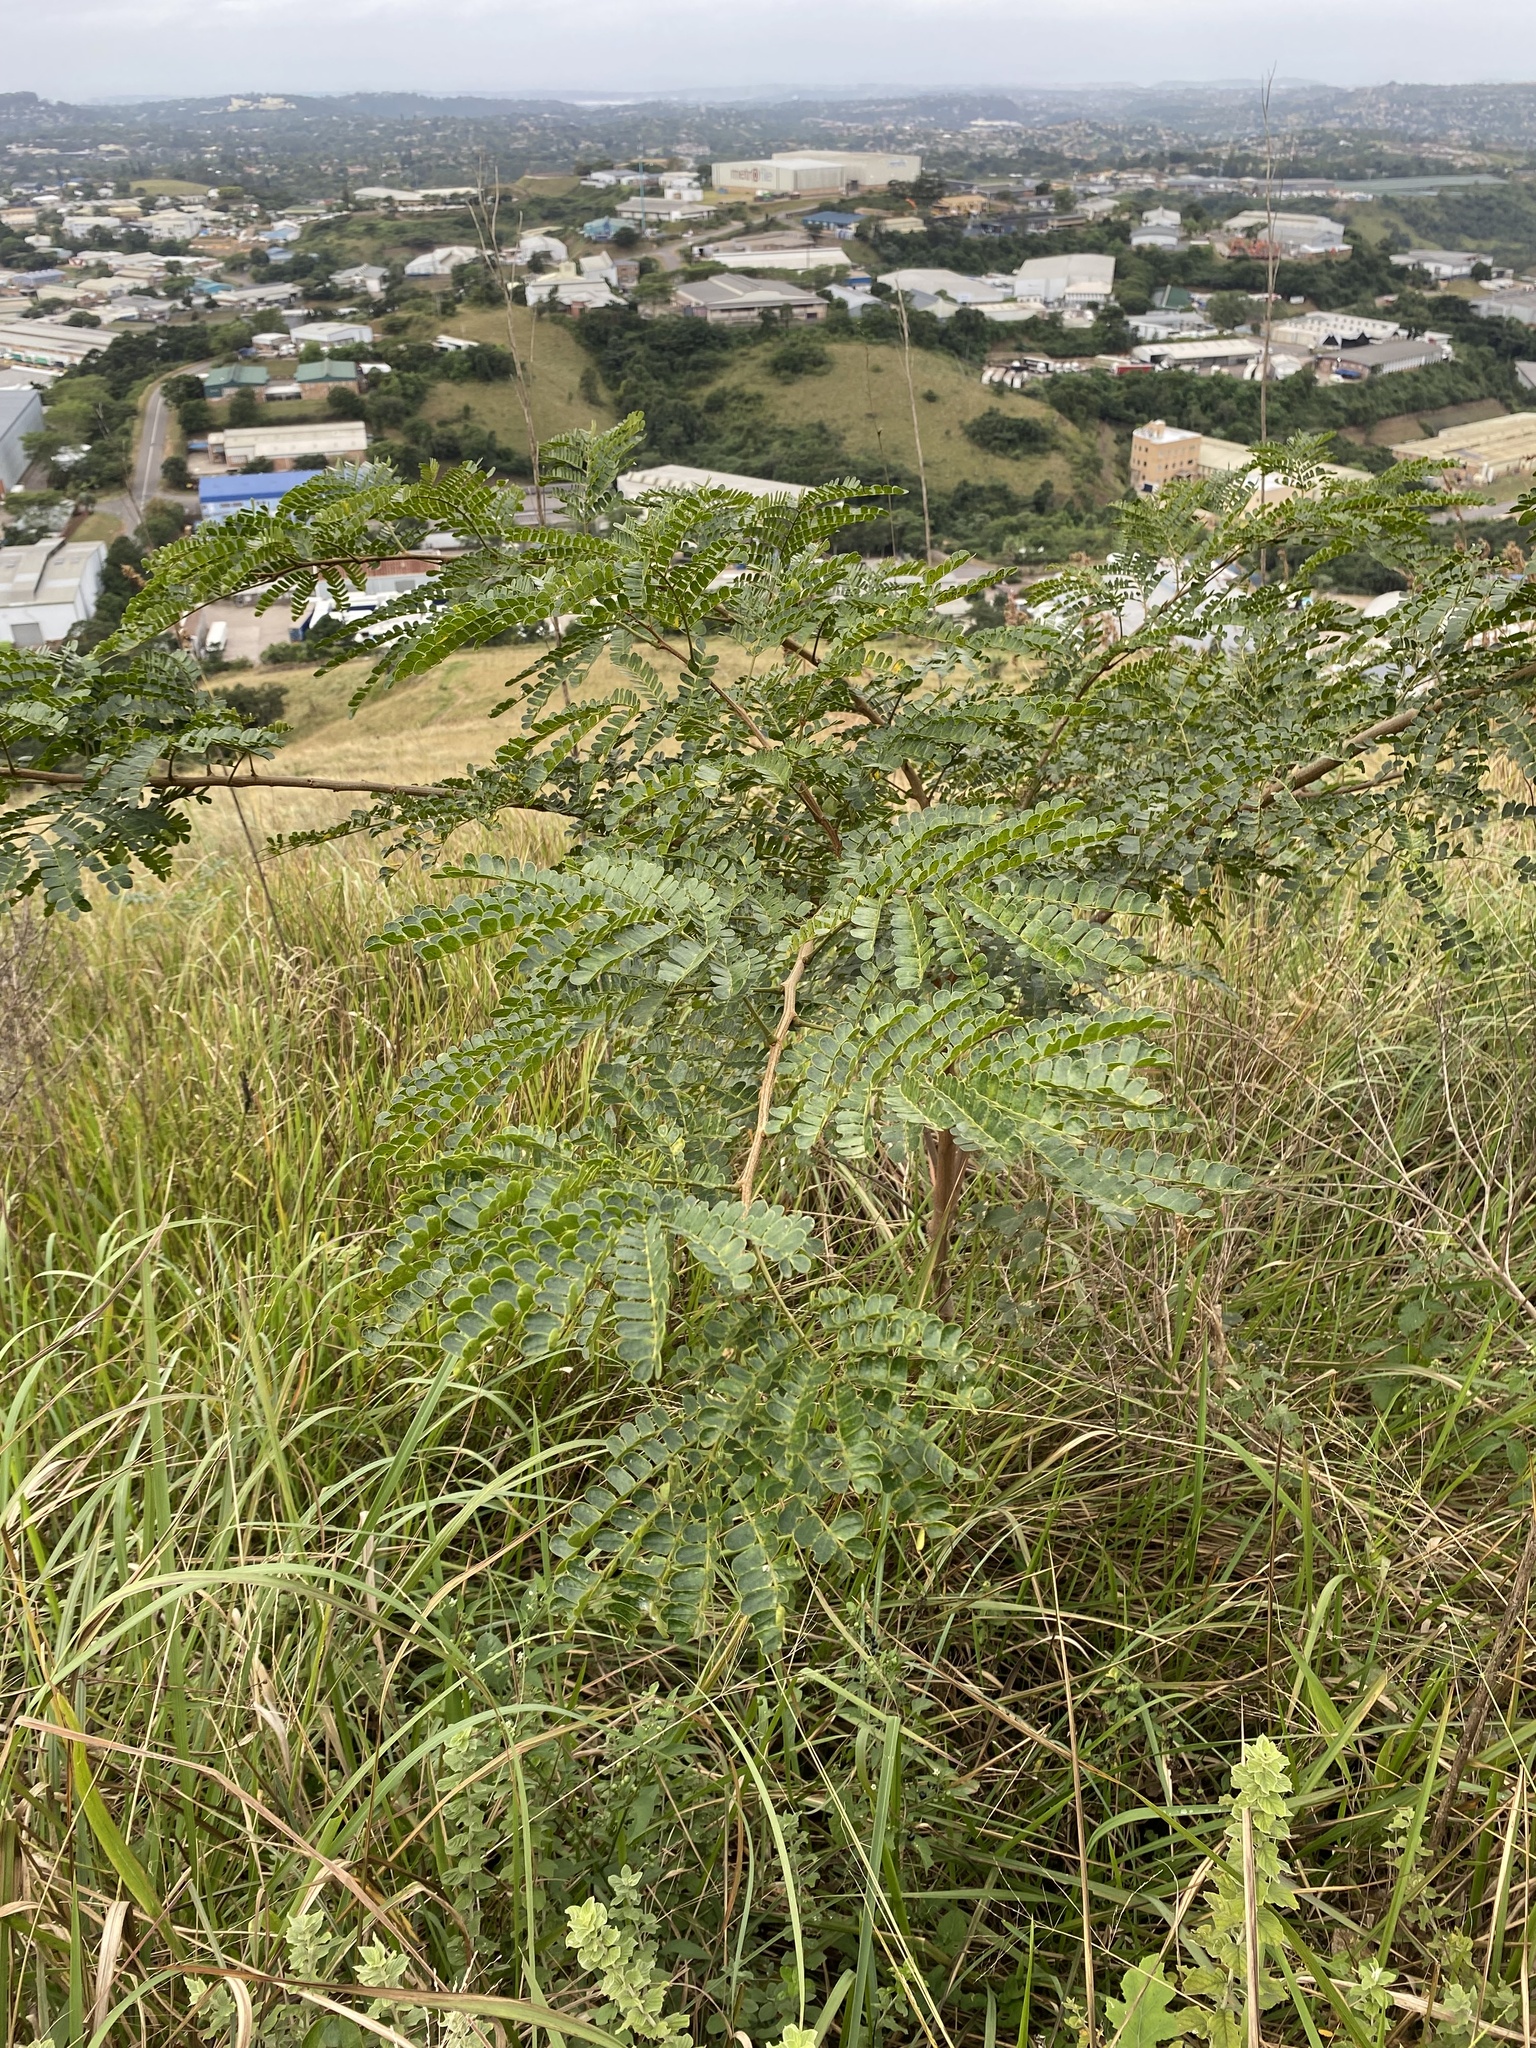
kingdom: Plantae
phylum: Tracheophyta
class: Magnoliopsida
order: Fabales
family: Fabaceae
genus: Albizia
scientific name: Albizia adianthifolia
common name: West african albizia
